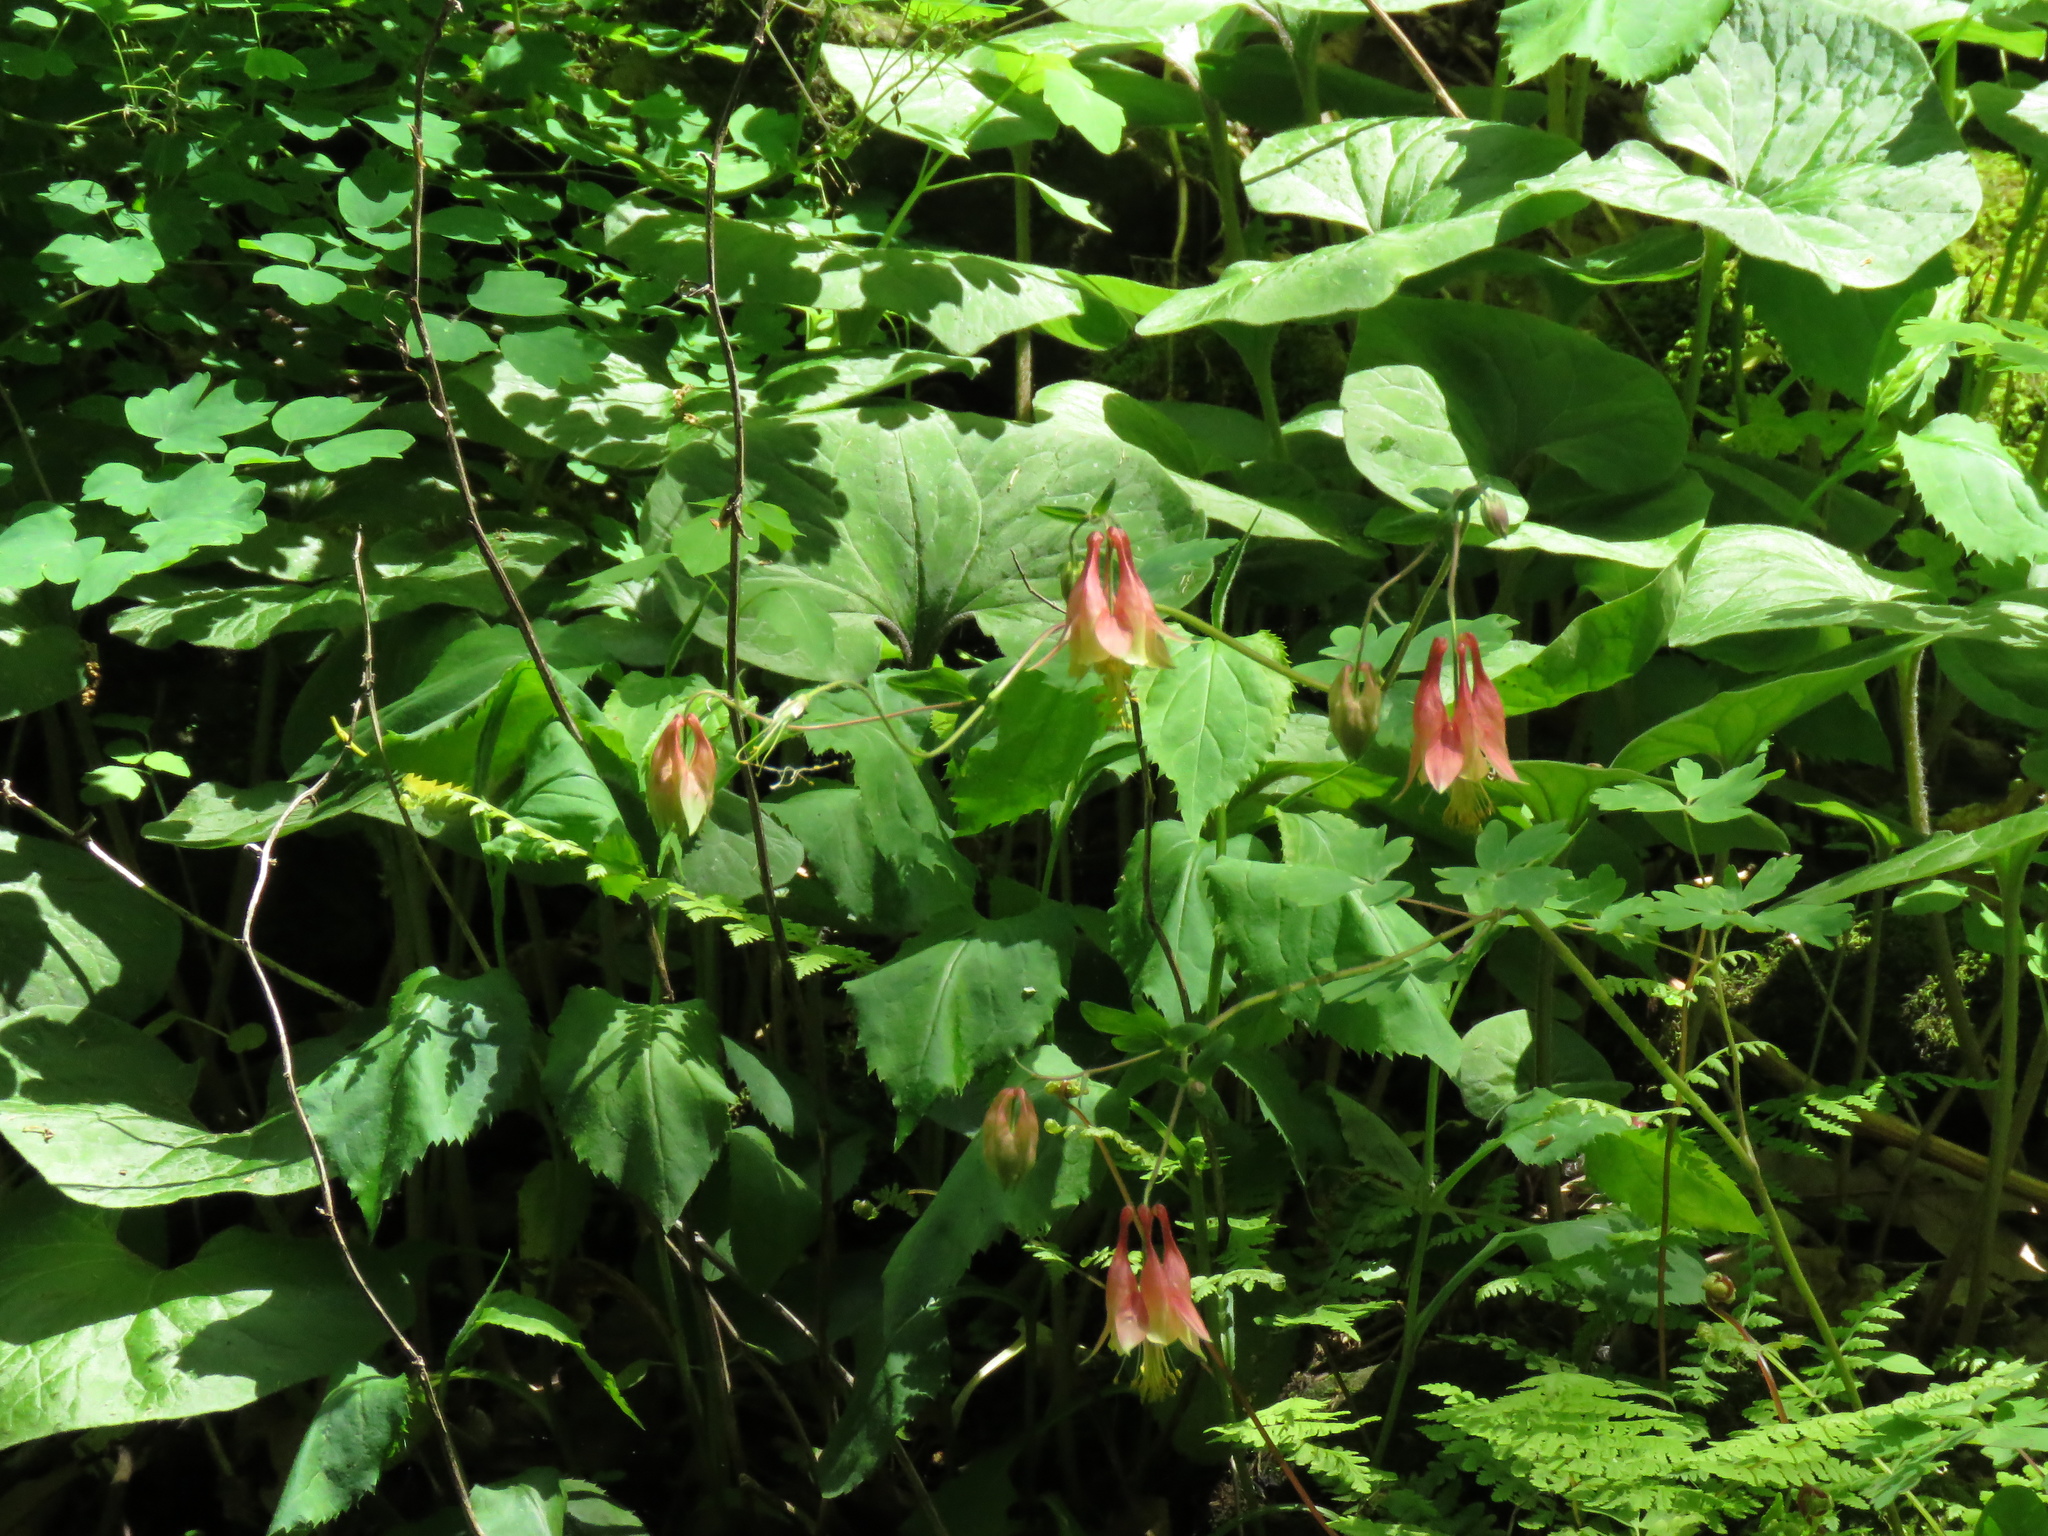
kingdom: Plantae
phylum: Tracheophyta
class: Magnoliopsida
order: Ranunculales
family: Ranunculaceae
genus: Aquilegia
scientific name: Aquilegia canadensis
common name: American columbine
